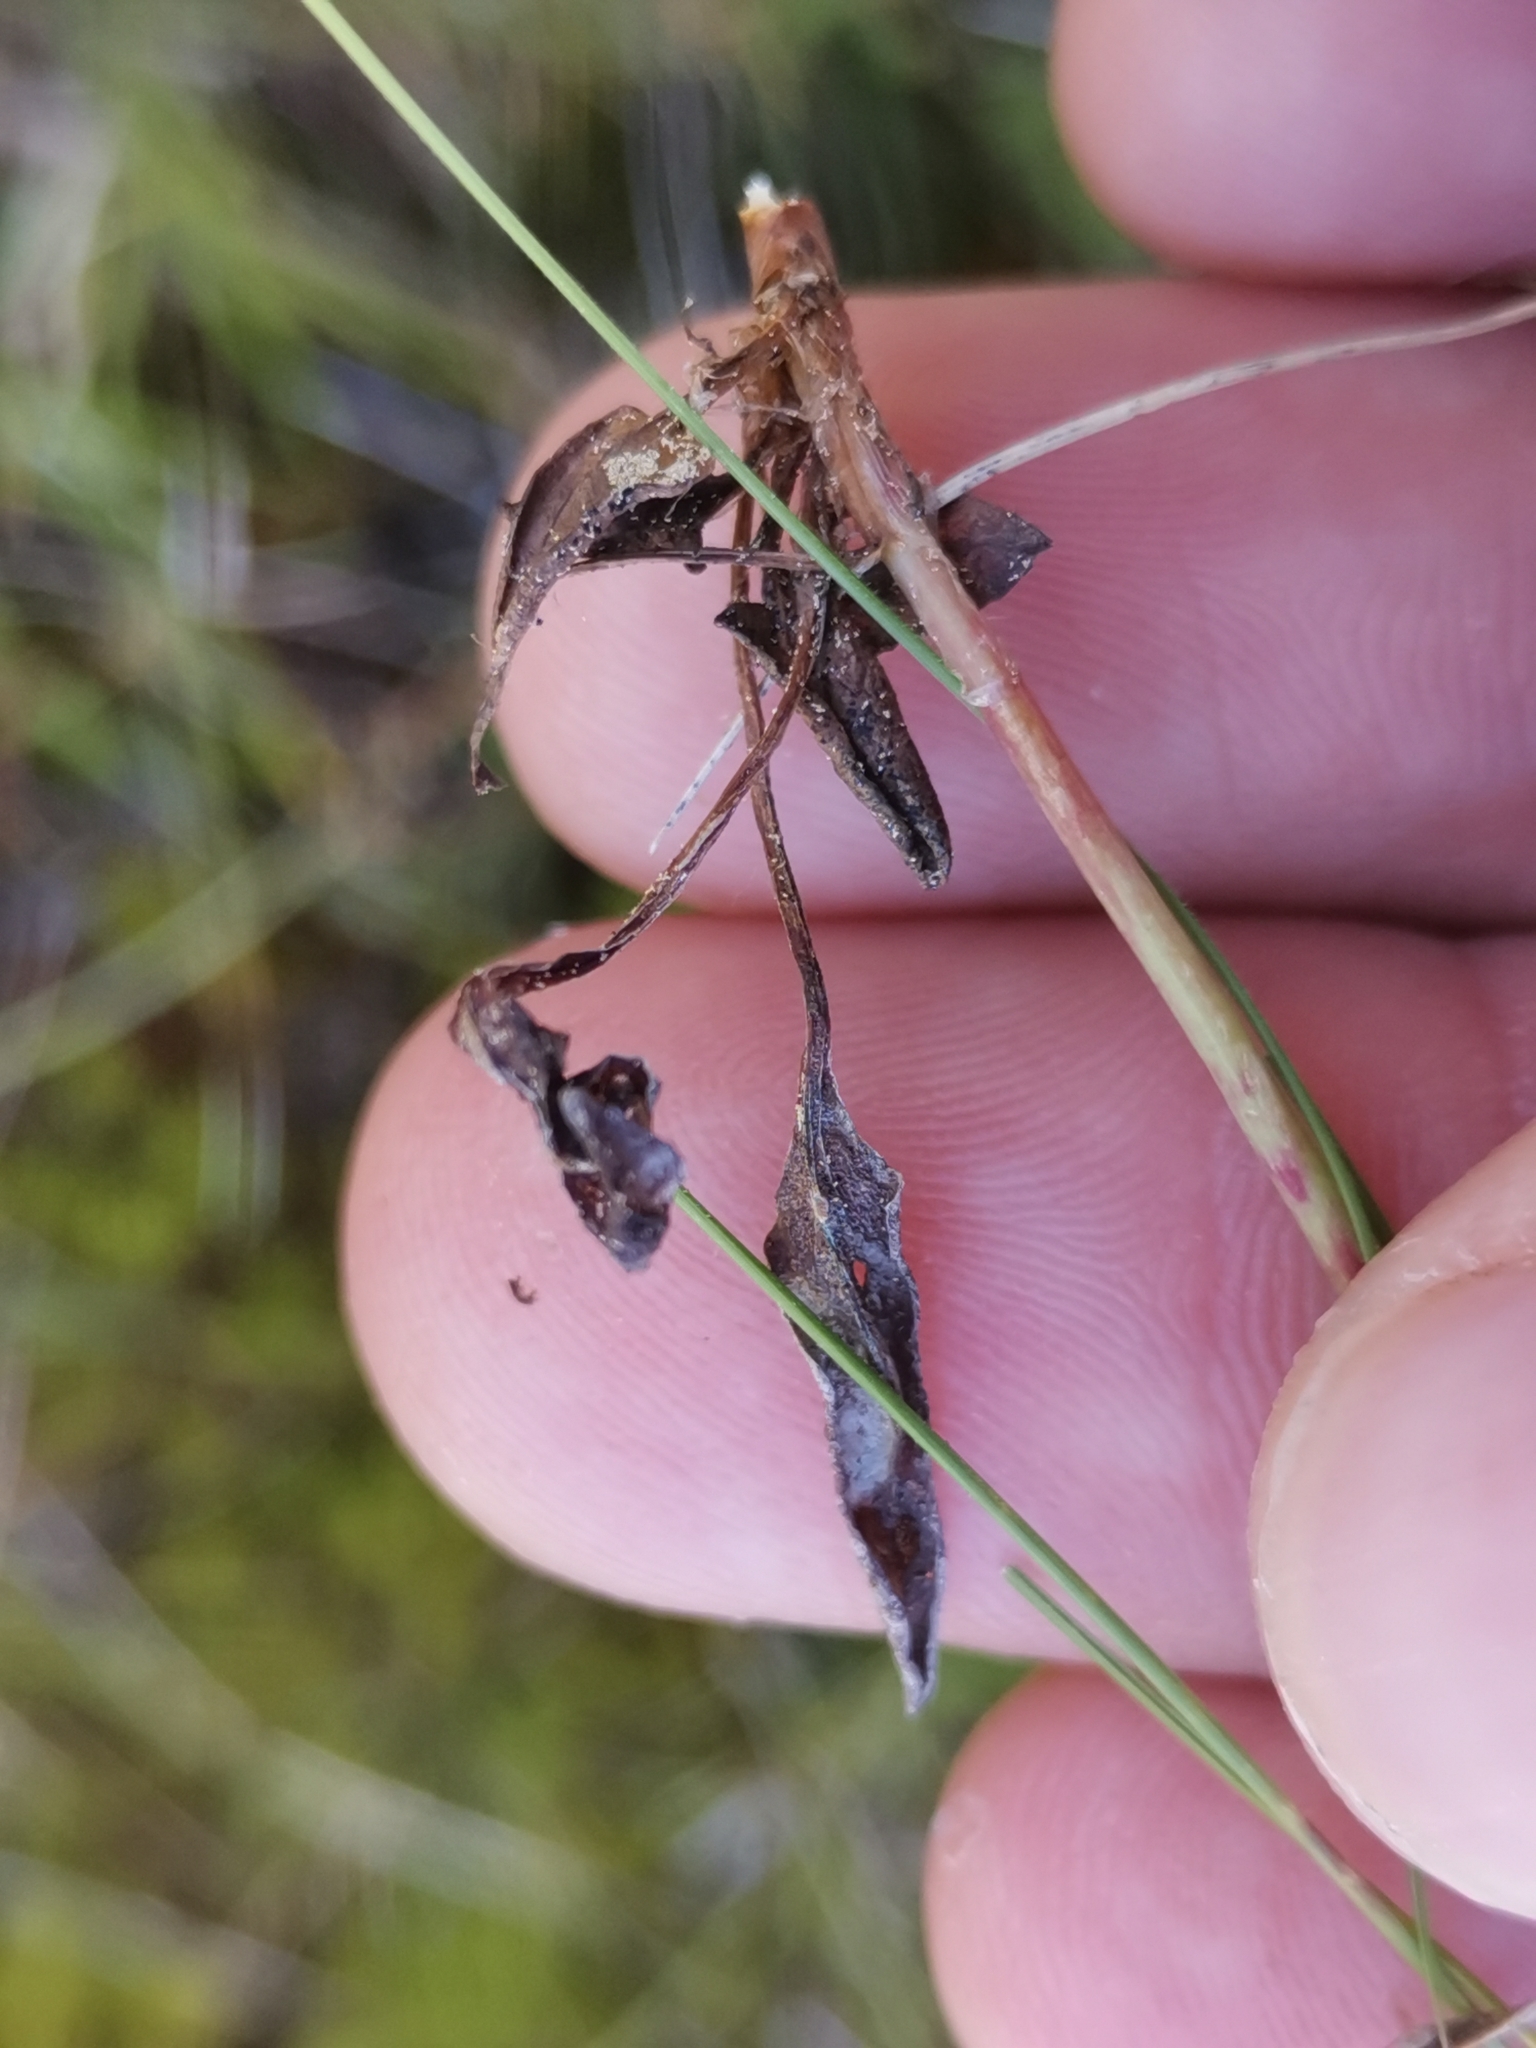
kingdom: Plantae
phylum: Tracheophyta
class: Magnoliopsida
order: Caryophyllales
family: Polygonaceae
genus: Rumex
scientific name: Rumex acetosella
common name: Common sheep sorrel
